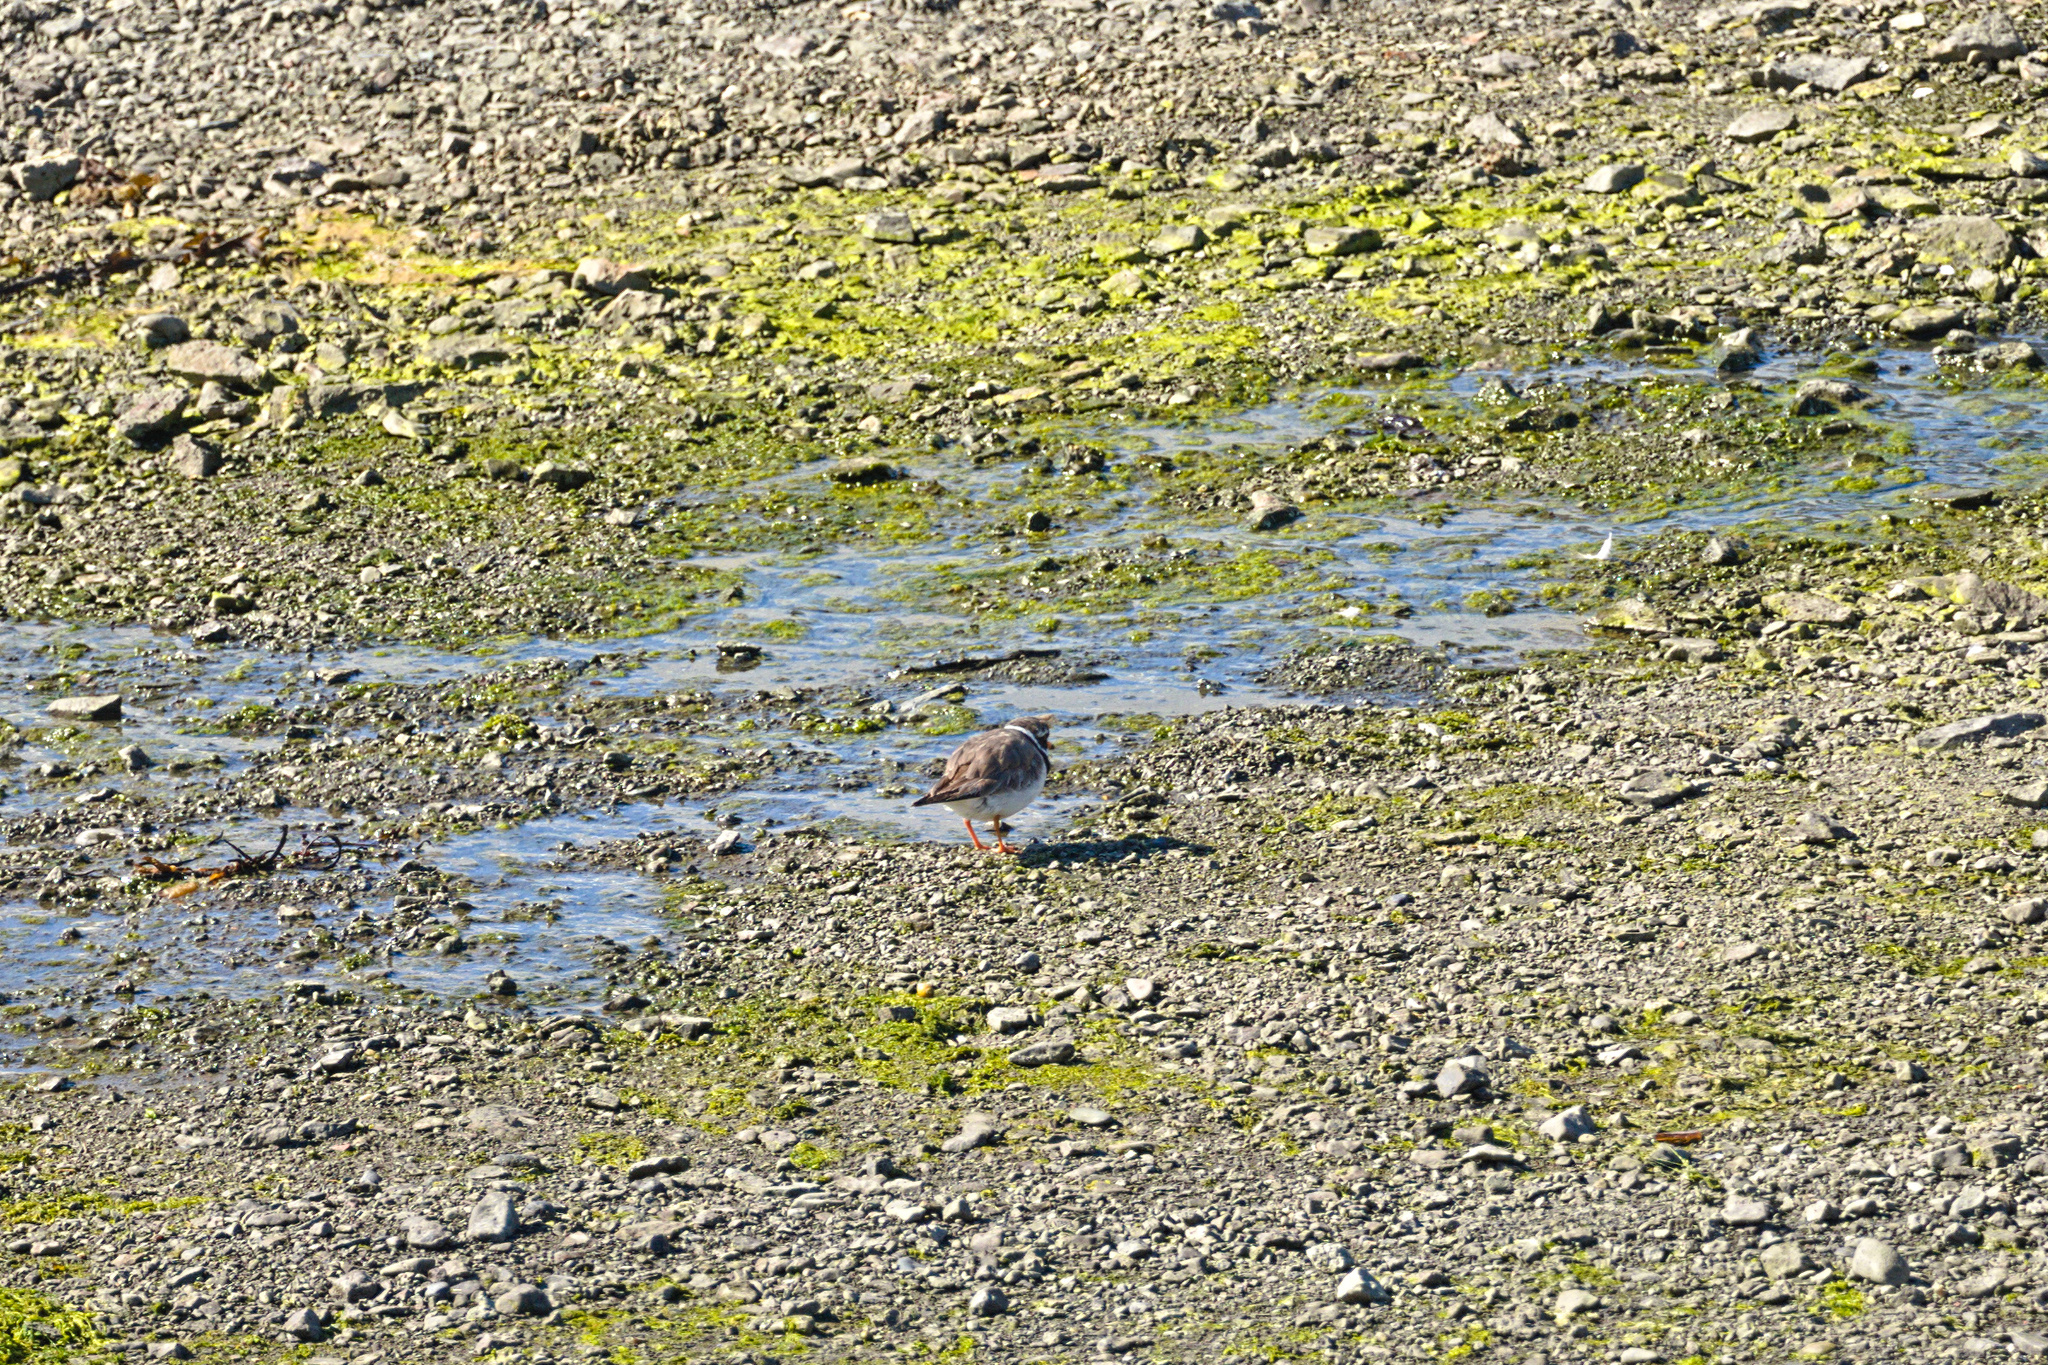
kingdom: Animalia
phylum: Chordata
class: Aves
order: Charadriiformes
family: Charadriidae
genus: Charadrius
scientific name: Charadrius hiaticula
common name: Common ringed plover
